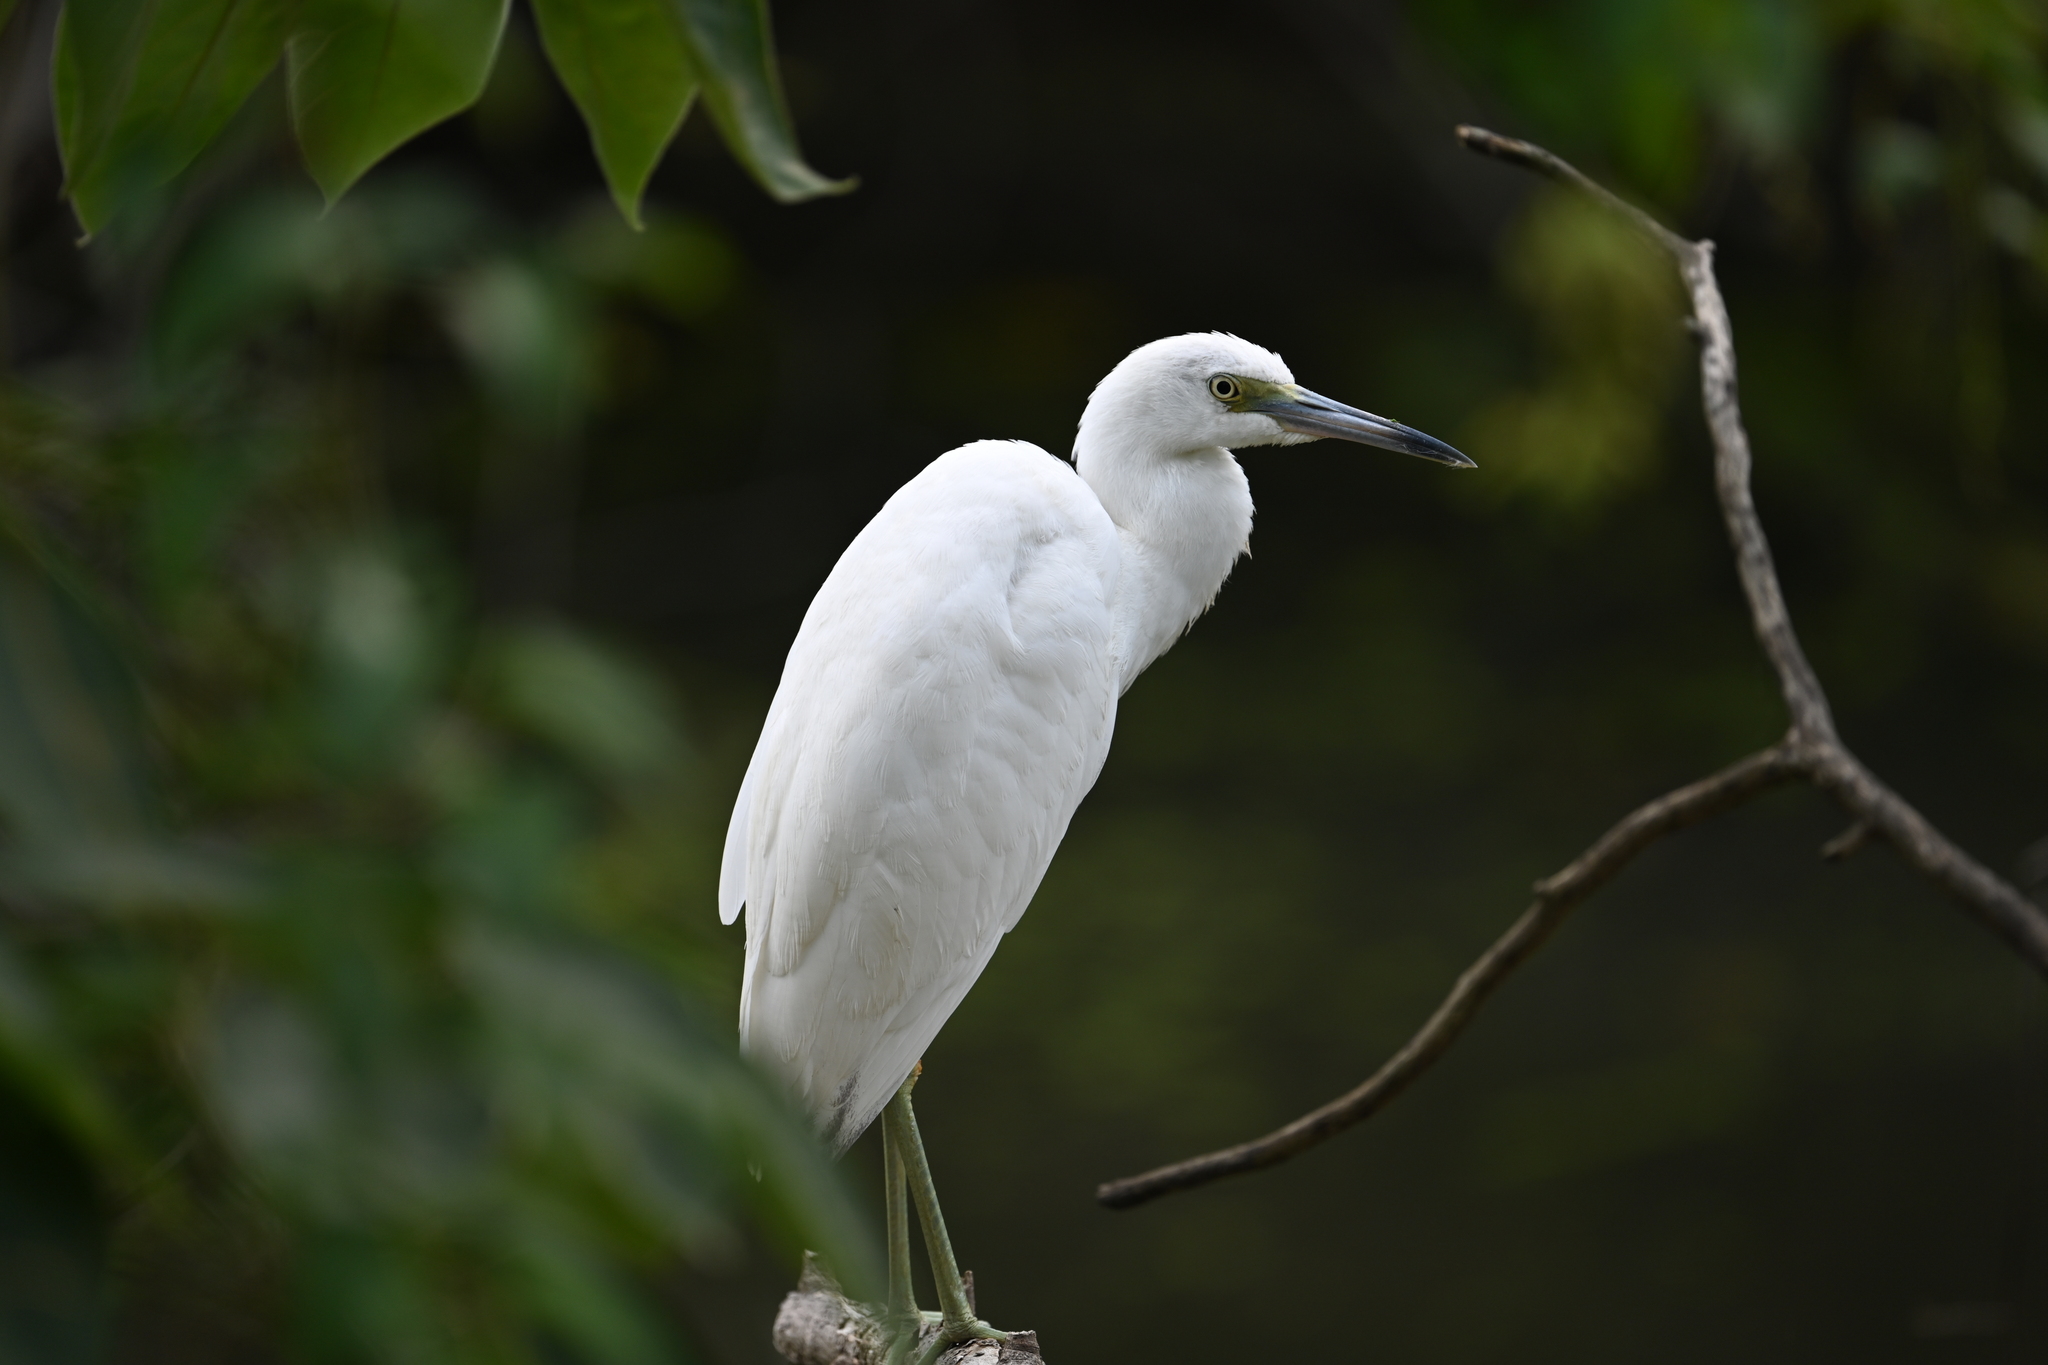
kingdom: Animalia
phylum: Chordata
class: Aves
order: Pelecaniformes
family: Ardeidae
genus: Egretta
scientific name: Egretta caerulea
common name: Little blue heron
